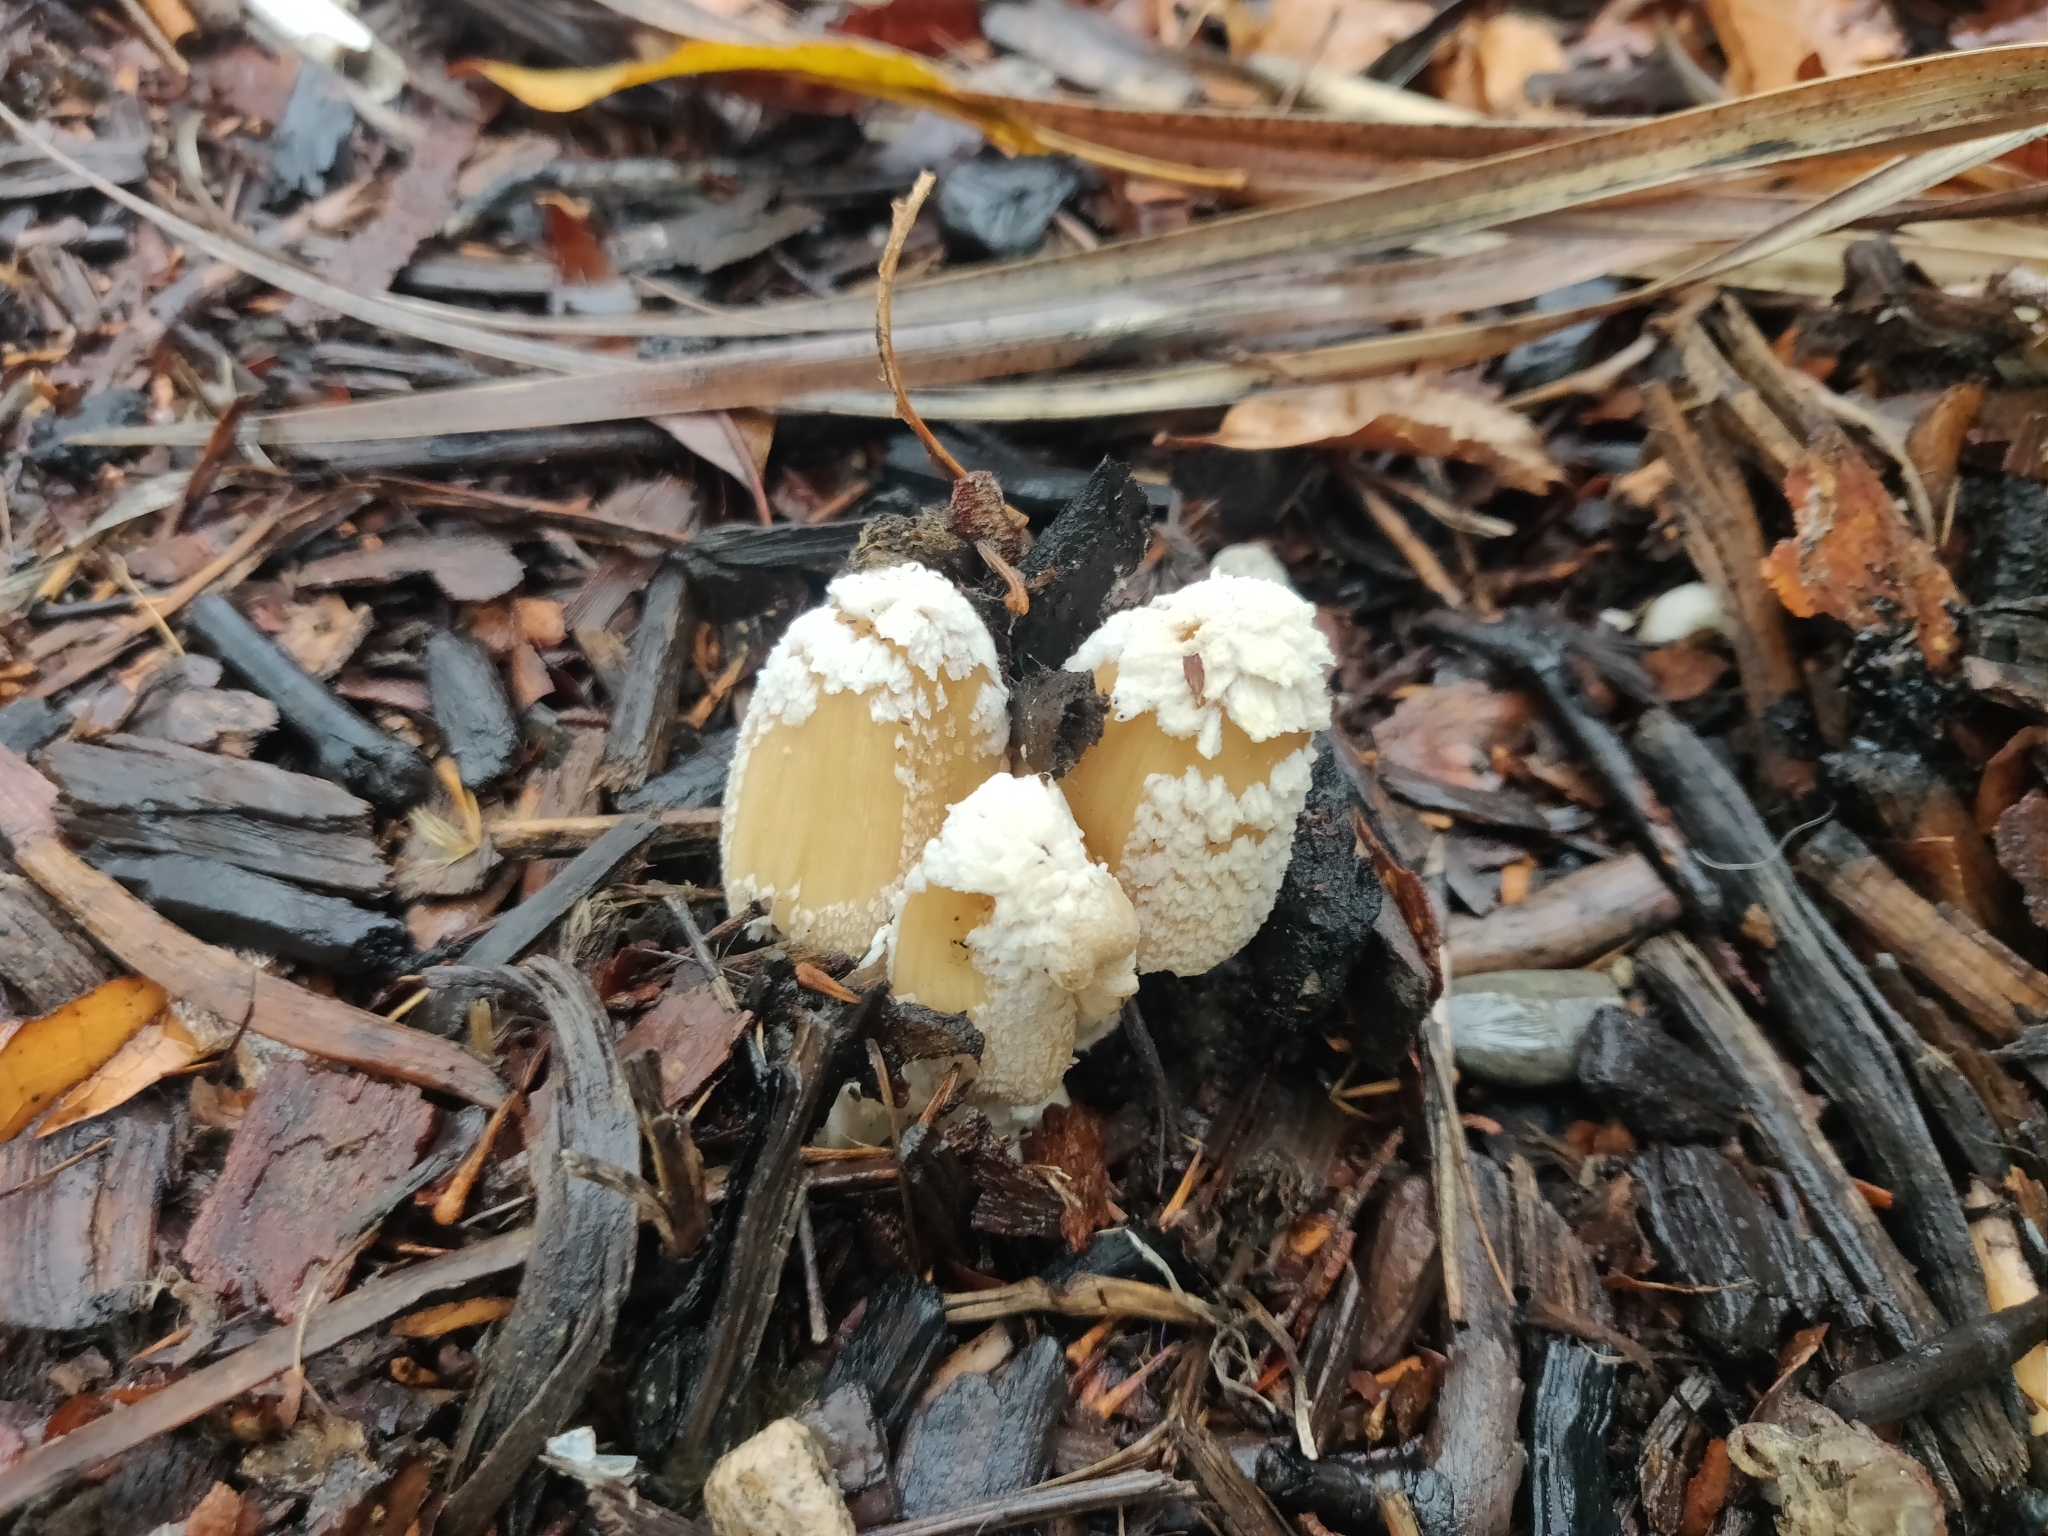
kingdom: Fungi
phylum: Basidiomycota
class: Agaricomycetes
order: Agaricales
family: Psathyrellaceae
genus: Coprinellus
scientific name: Coprinellus flocculosus
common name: Flocculose inkcap
